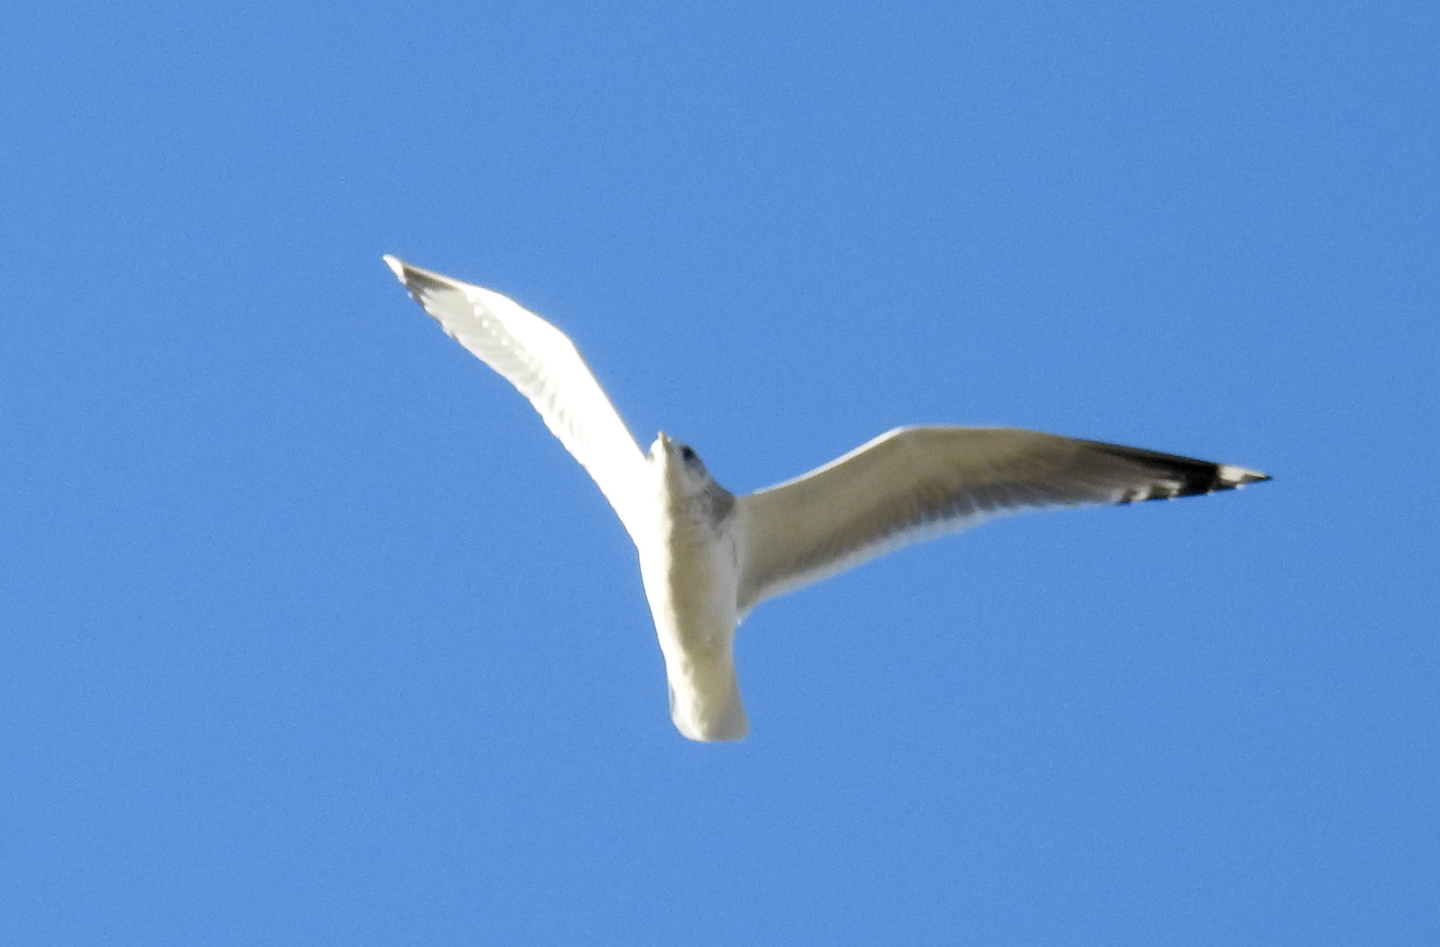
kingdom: Animalia
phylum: Chordata
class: Aves
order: Charadriiformes
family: Laridae
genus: Larus
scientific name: Larus brachyrhynchus
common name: Short-billed gull
